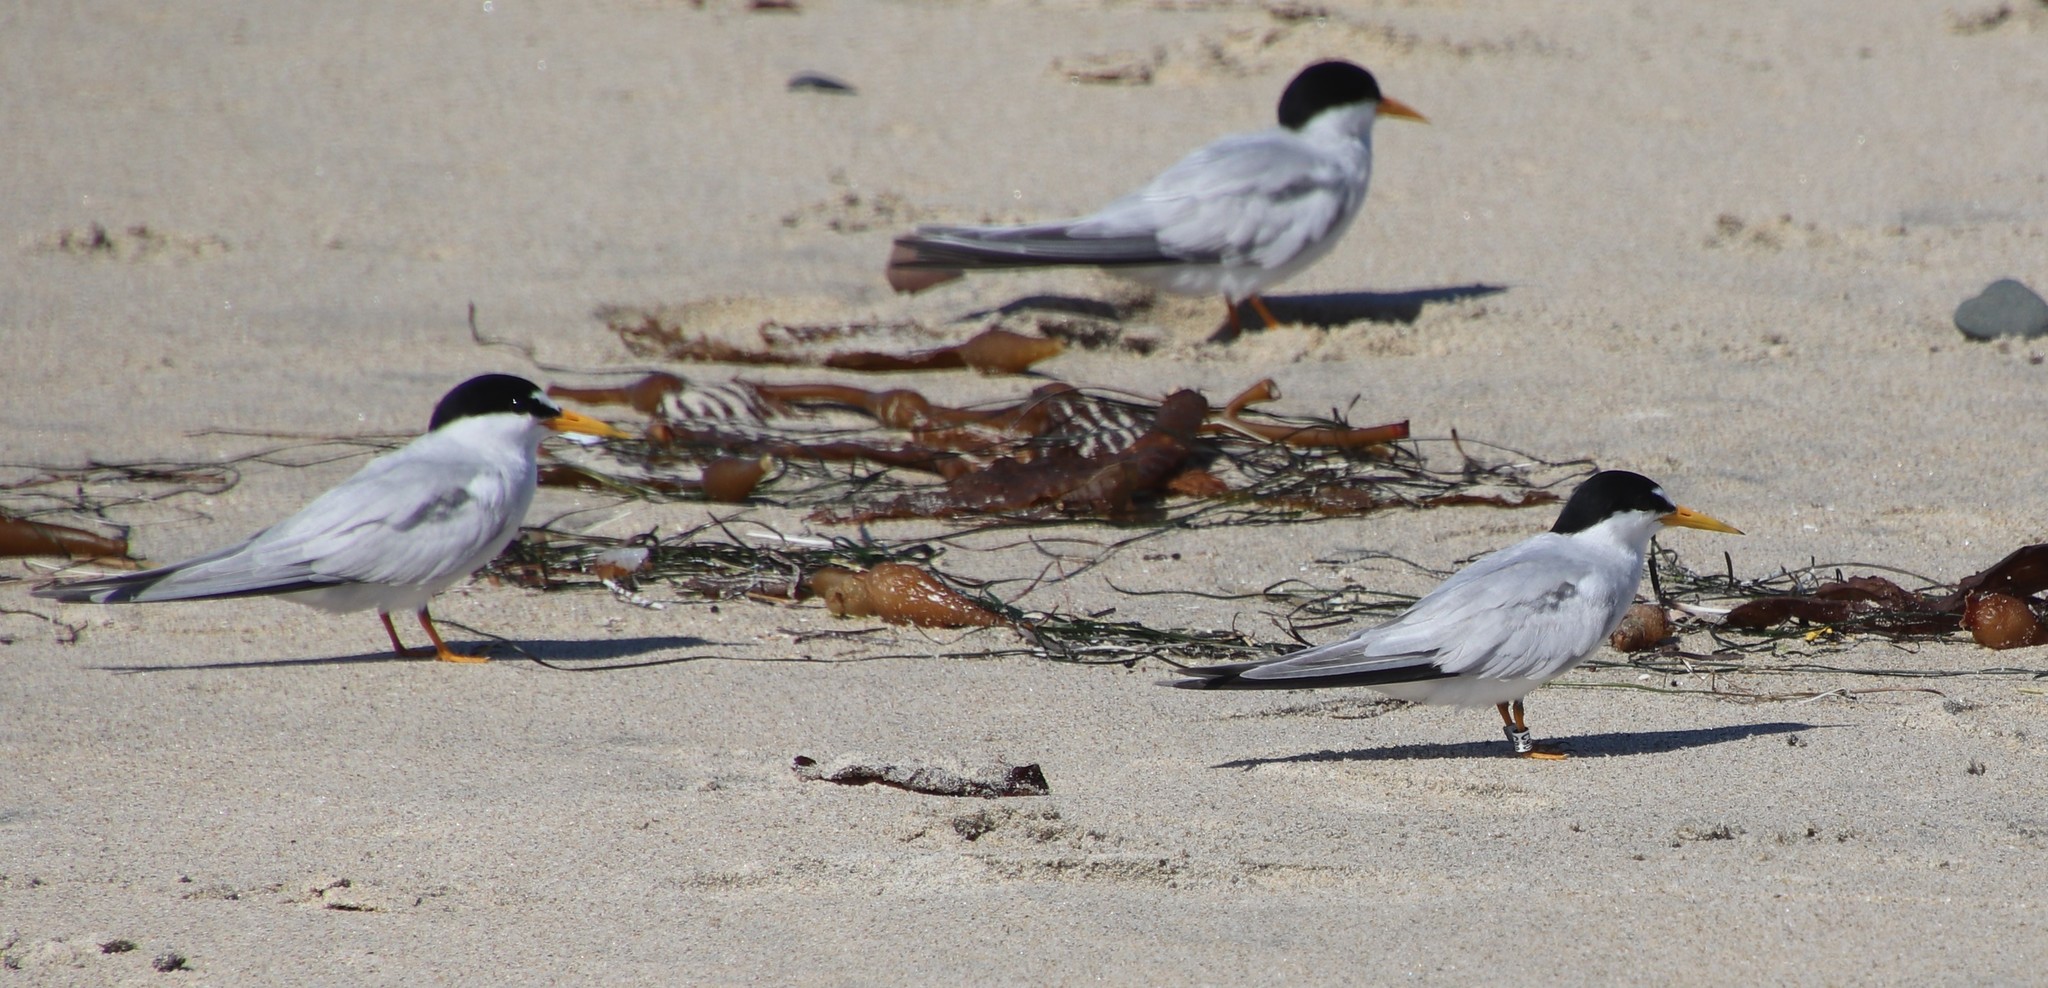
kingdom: Animalia
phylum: Chordata
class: Aves
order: Charadriiformes
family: Laridae
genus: Sternula
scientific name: Sternula antillarum
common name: Least tern
